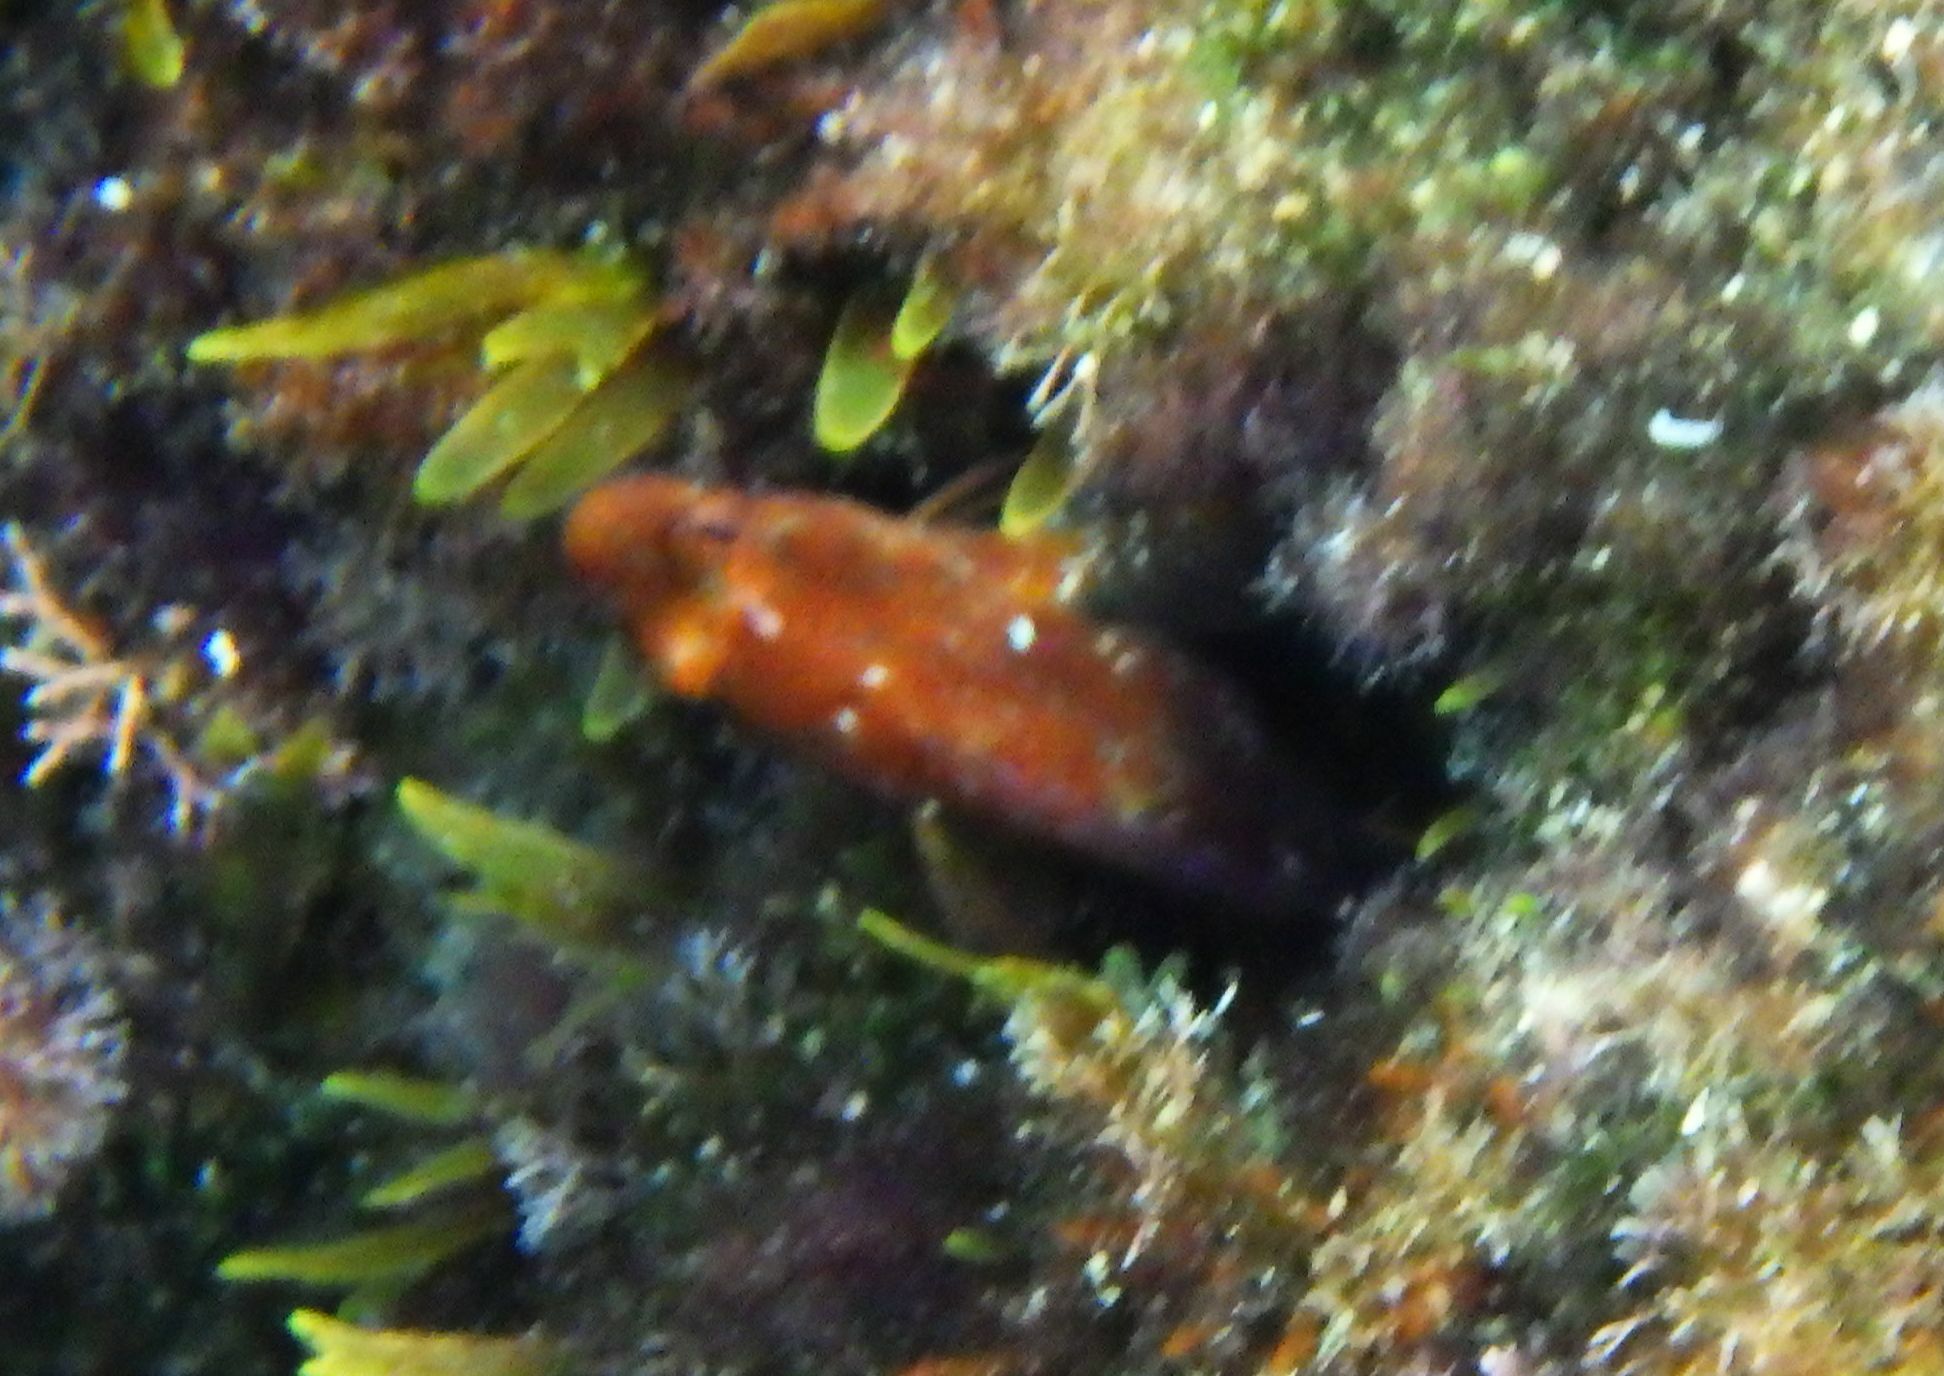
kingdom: Animalia
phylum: Chordata
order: Perciformes
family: Blenniidae
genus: Parablennius
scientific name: Parablennius zvonimiri
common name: Red blenny
